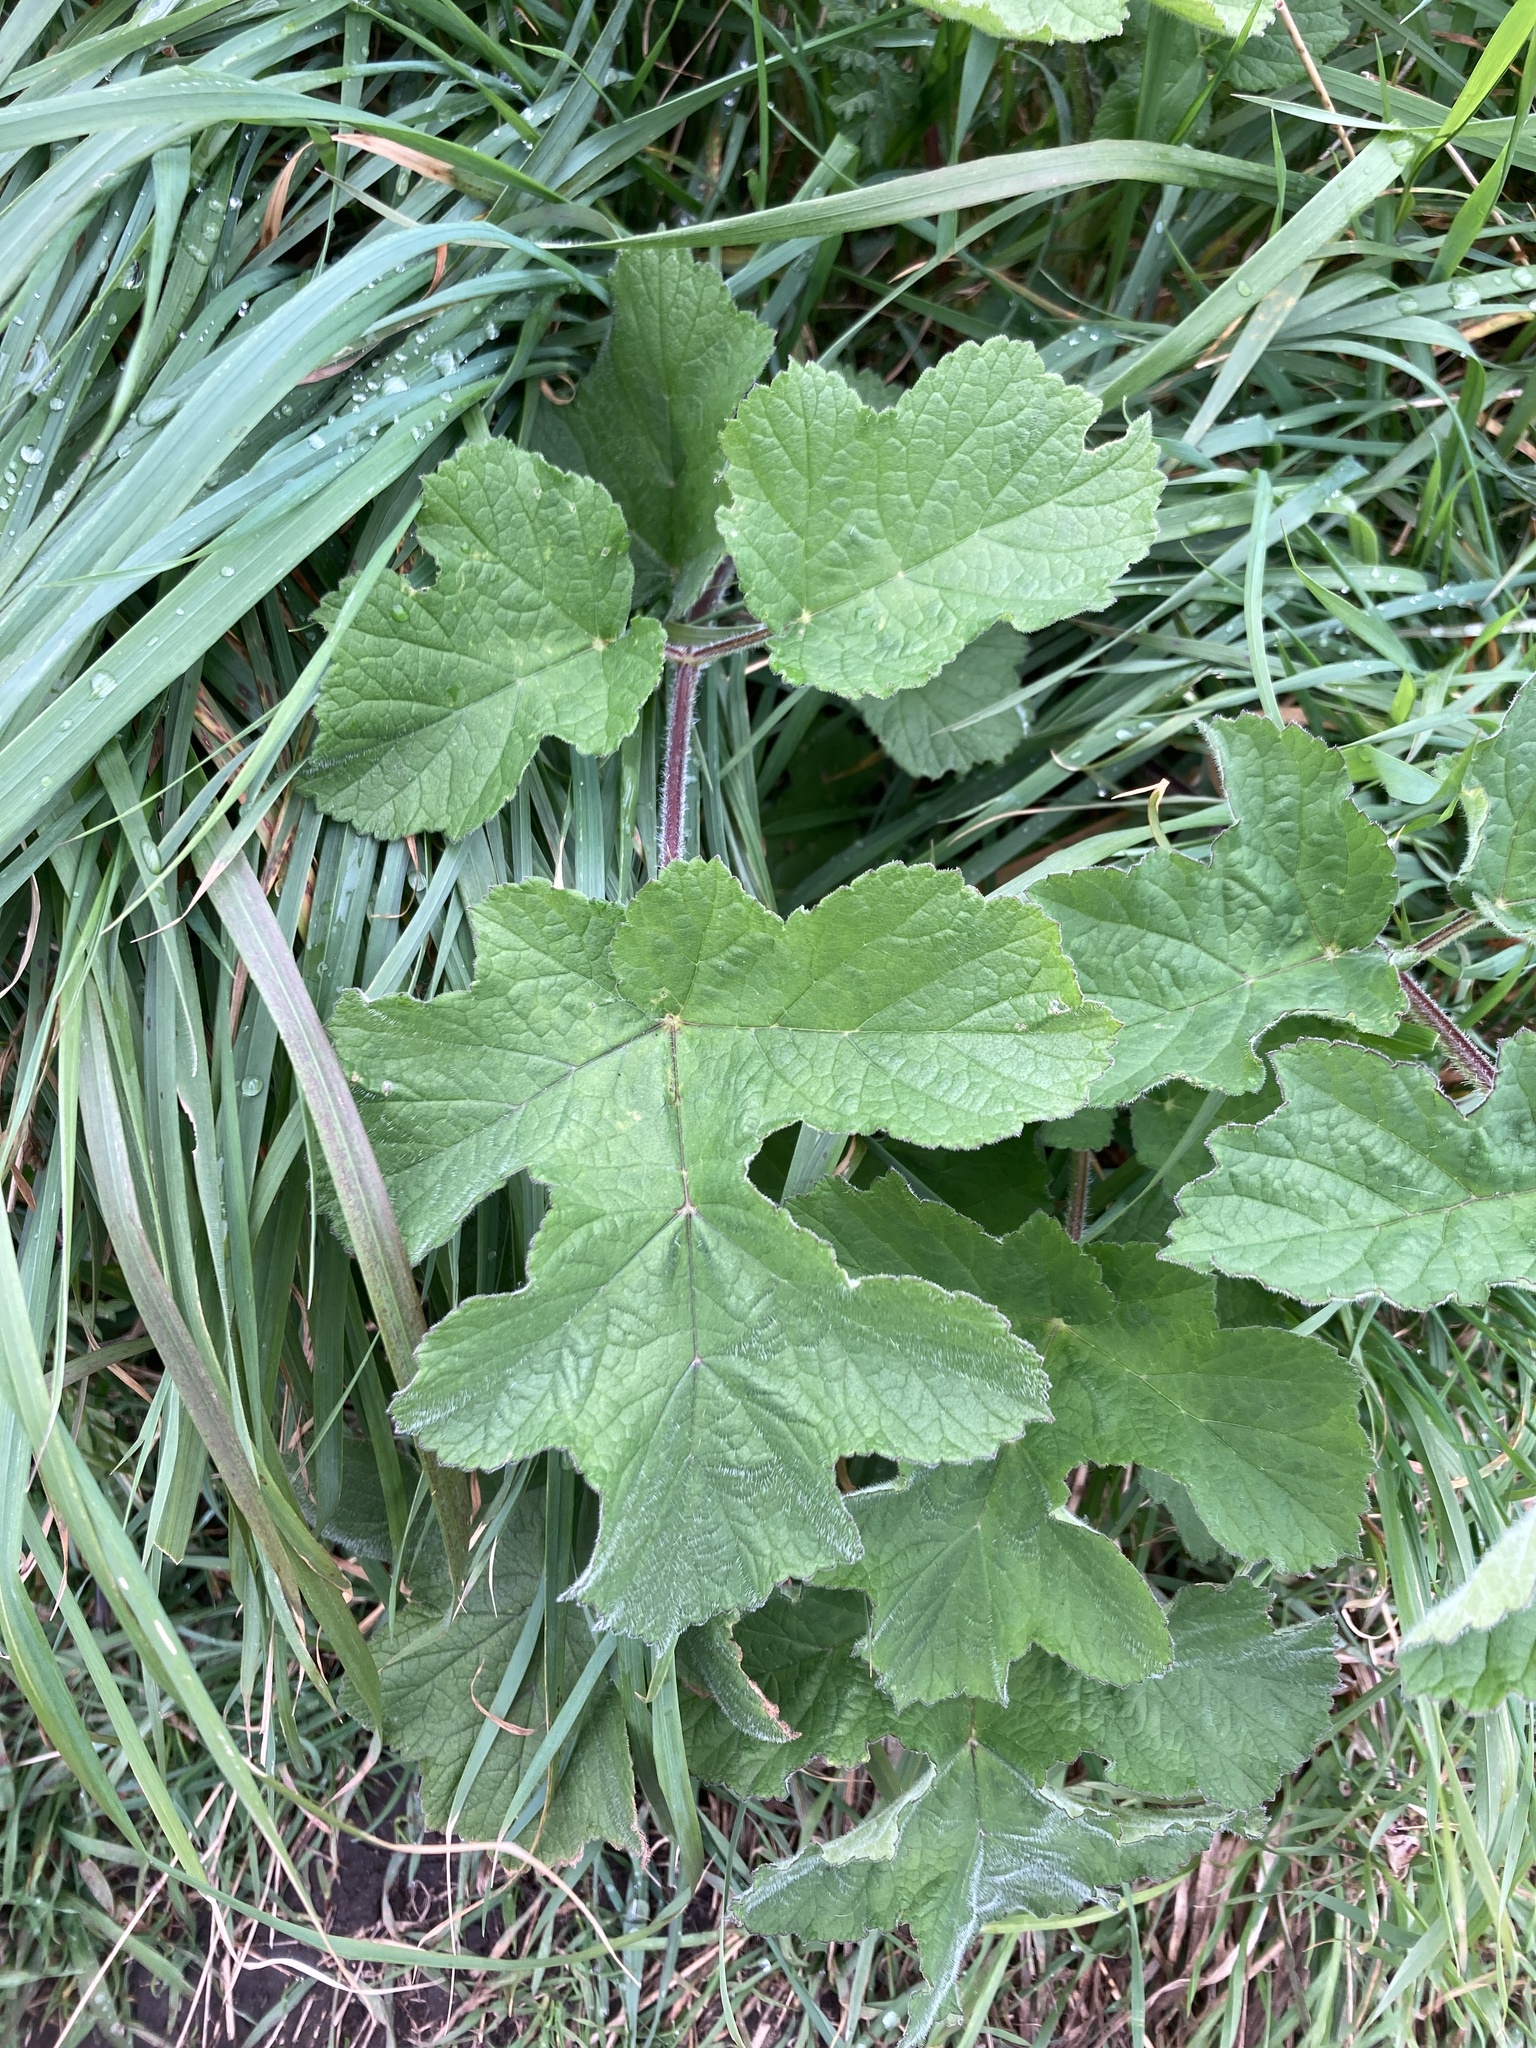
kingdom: Plantae
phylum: Tracheophyta
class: Magnoliopsida
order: Apiales
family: Apiaceae
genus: Heracleum
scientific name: Heracleum sphondylium
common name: Hogweed
